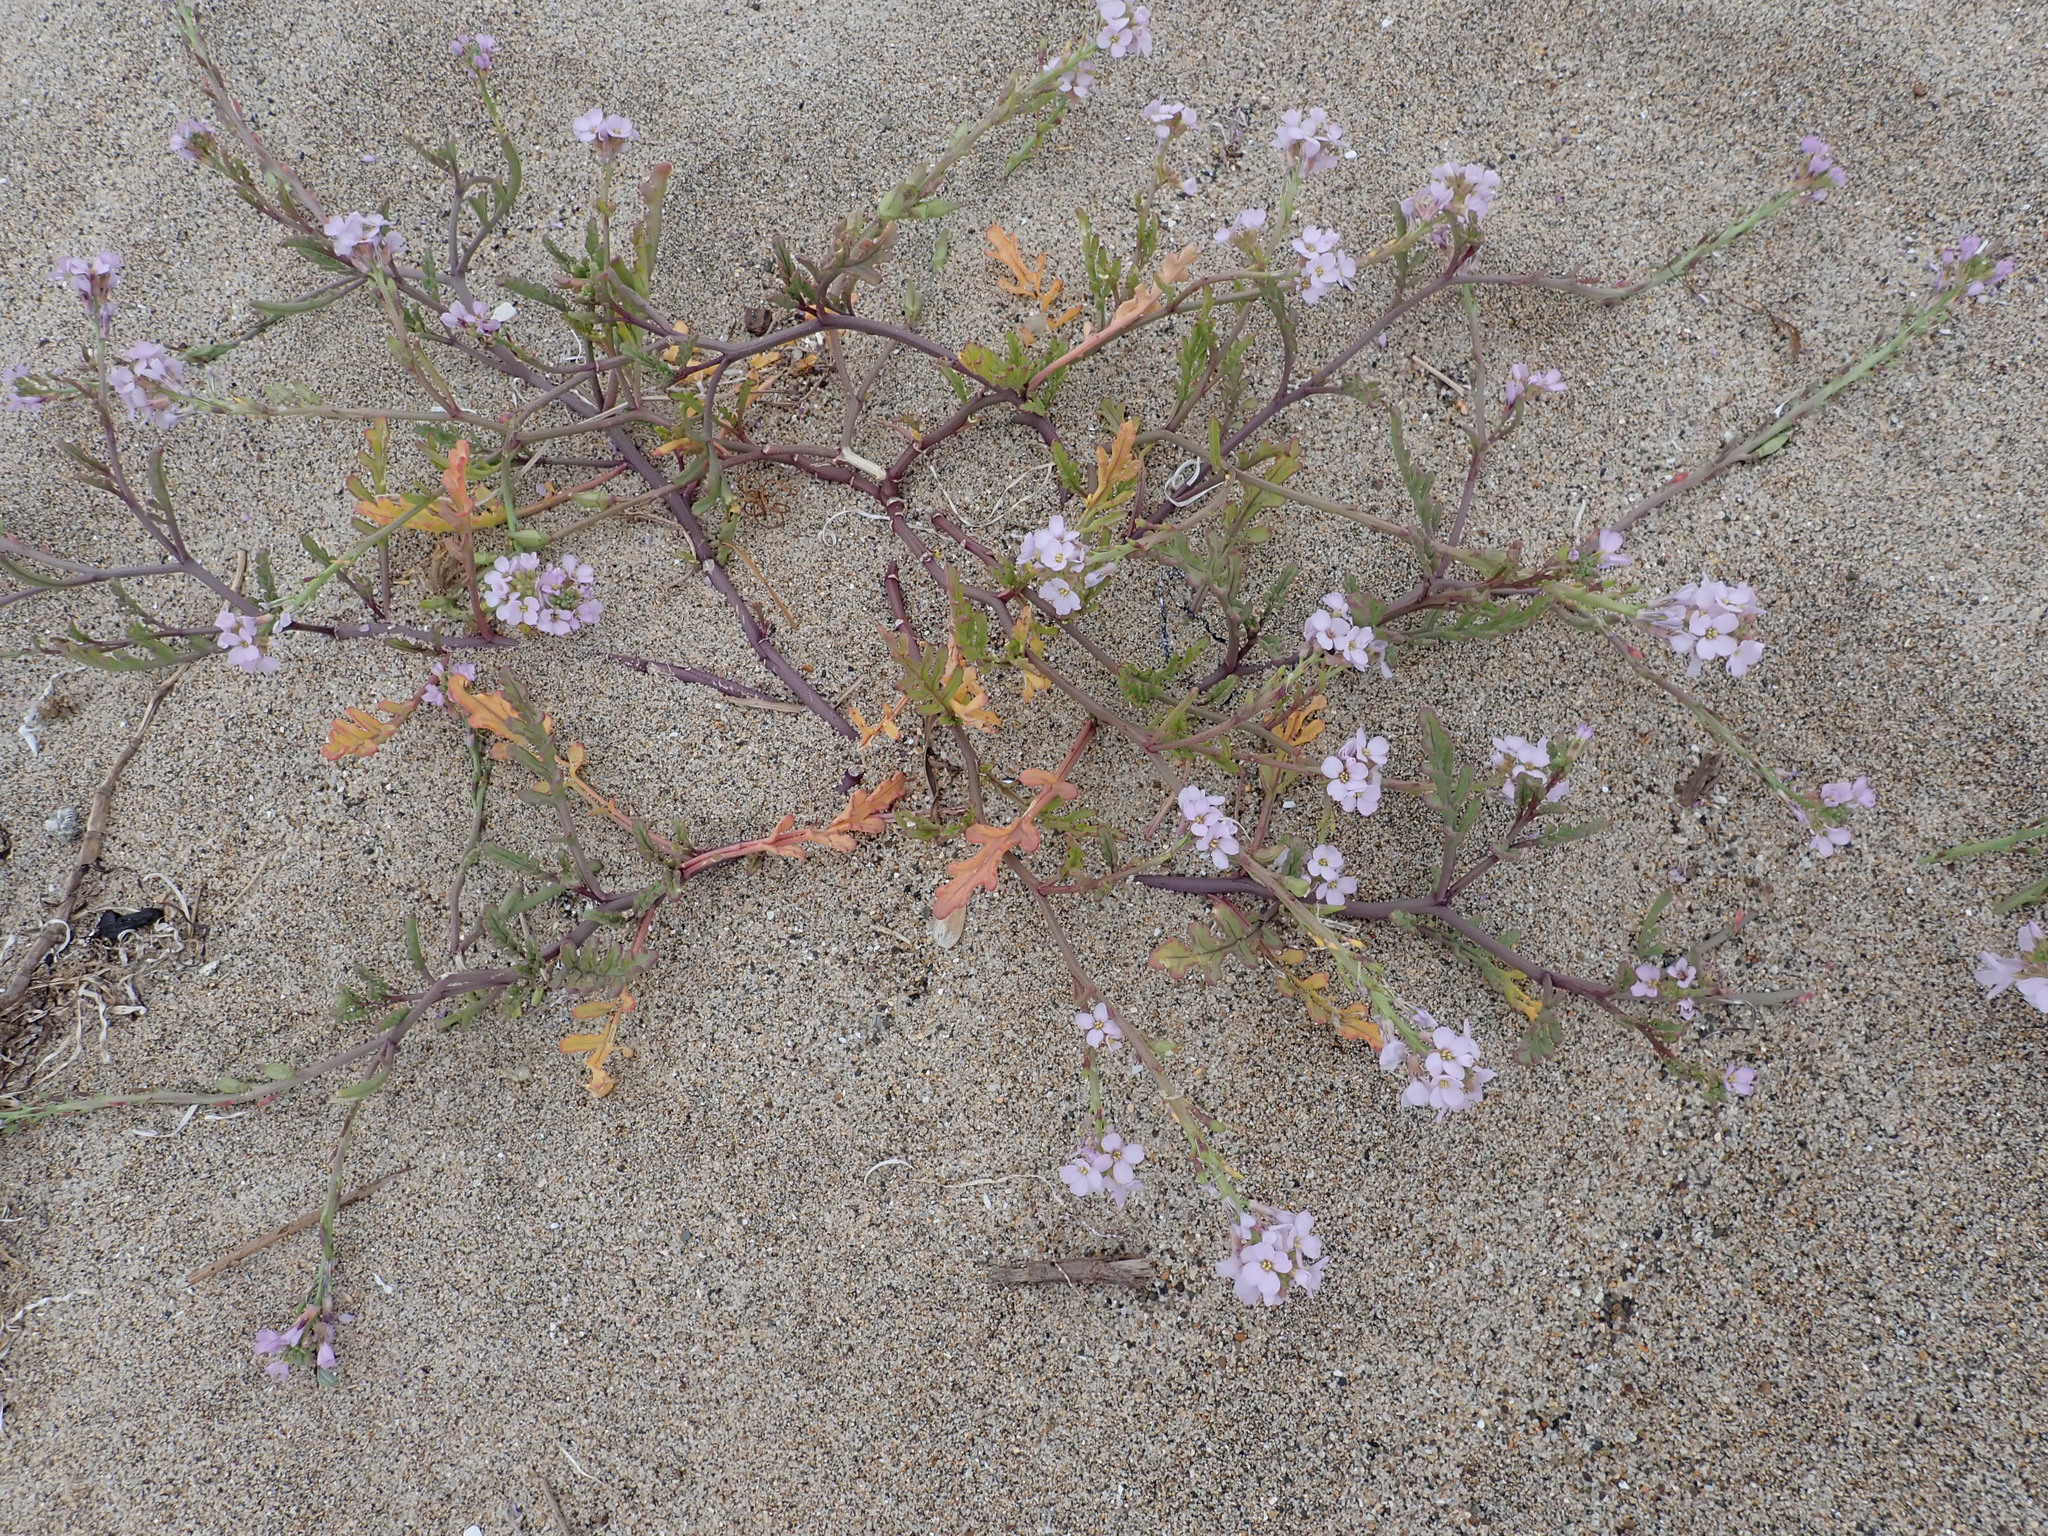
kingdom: Plantae
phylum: Tracheophyta
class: Magnoliopsida
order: Brassicales
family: Brassicaceae
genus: Cakile
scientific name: Cakile maritima
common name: Sea rocket
